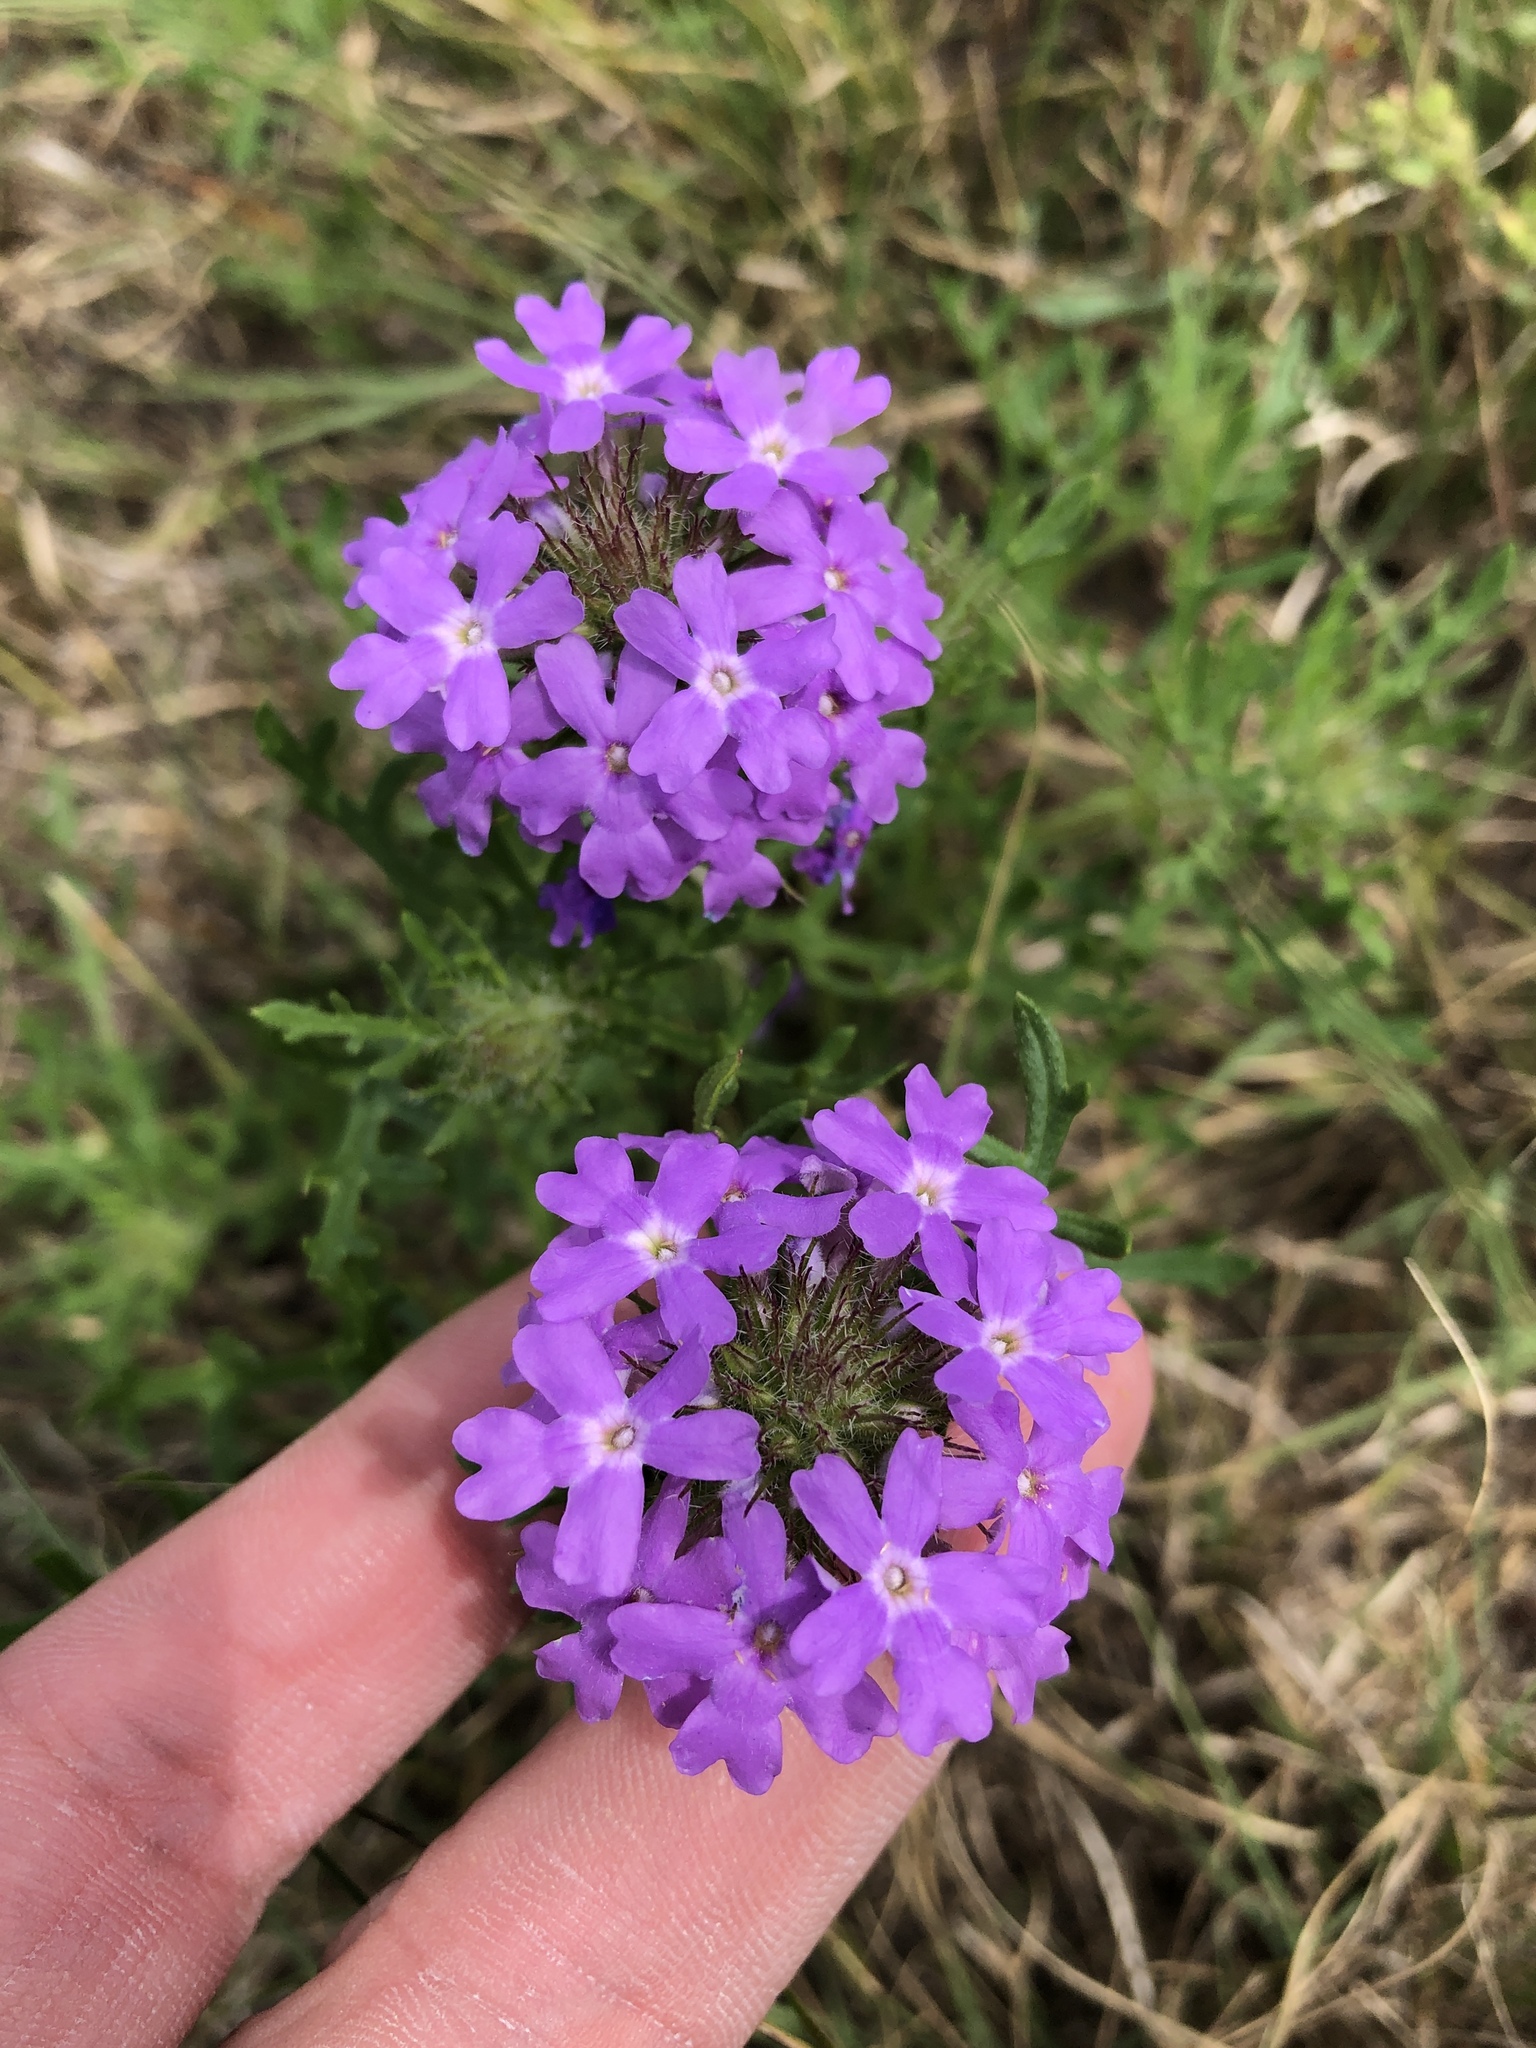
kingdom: Plantae
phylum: Tracheophyta
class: Magnoliopsida
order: Lamiales
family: Verbenaceae
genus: Verbena
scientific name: Verbena bipinnatifida
